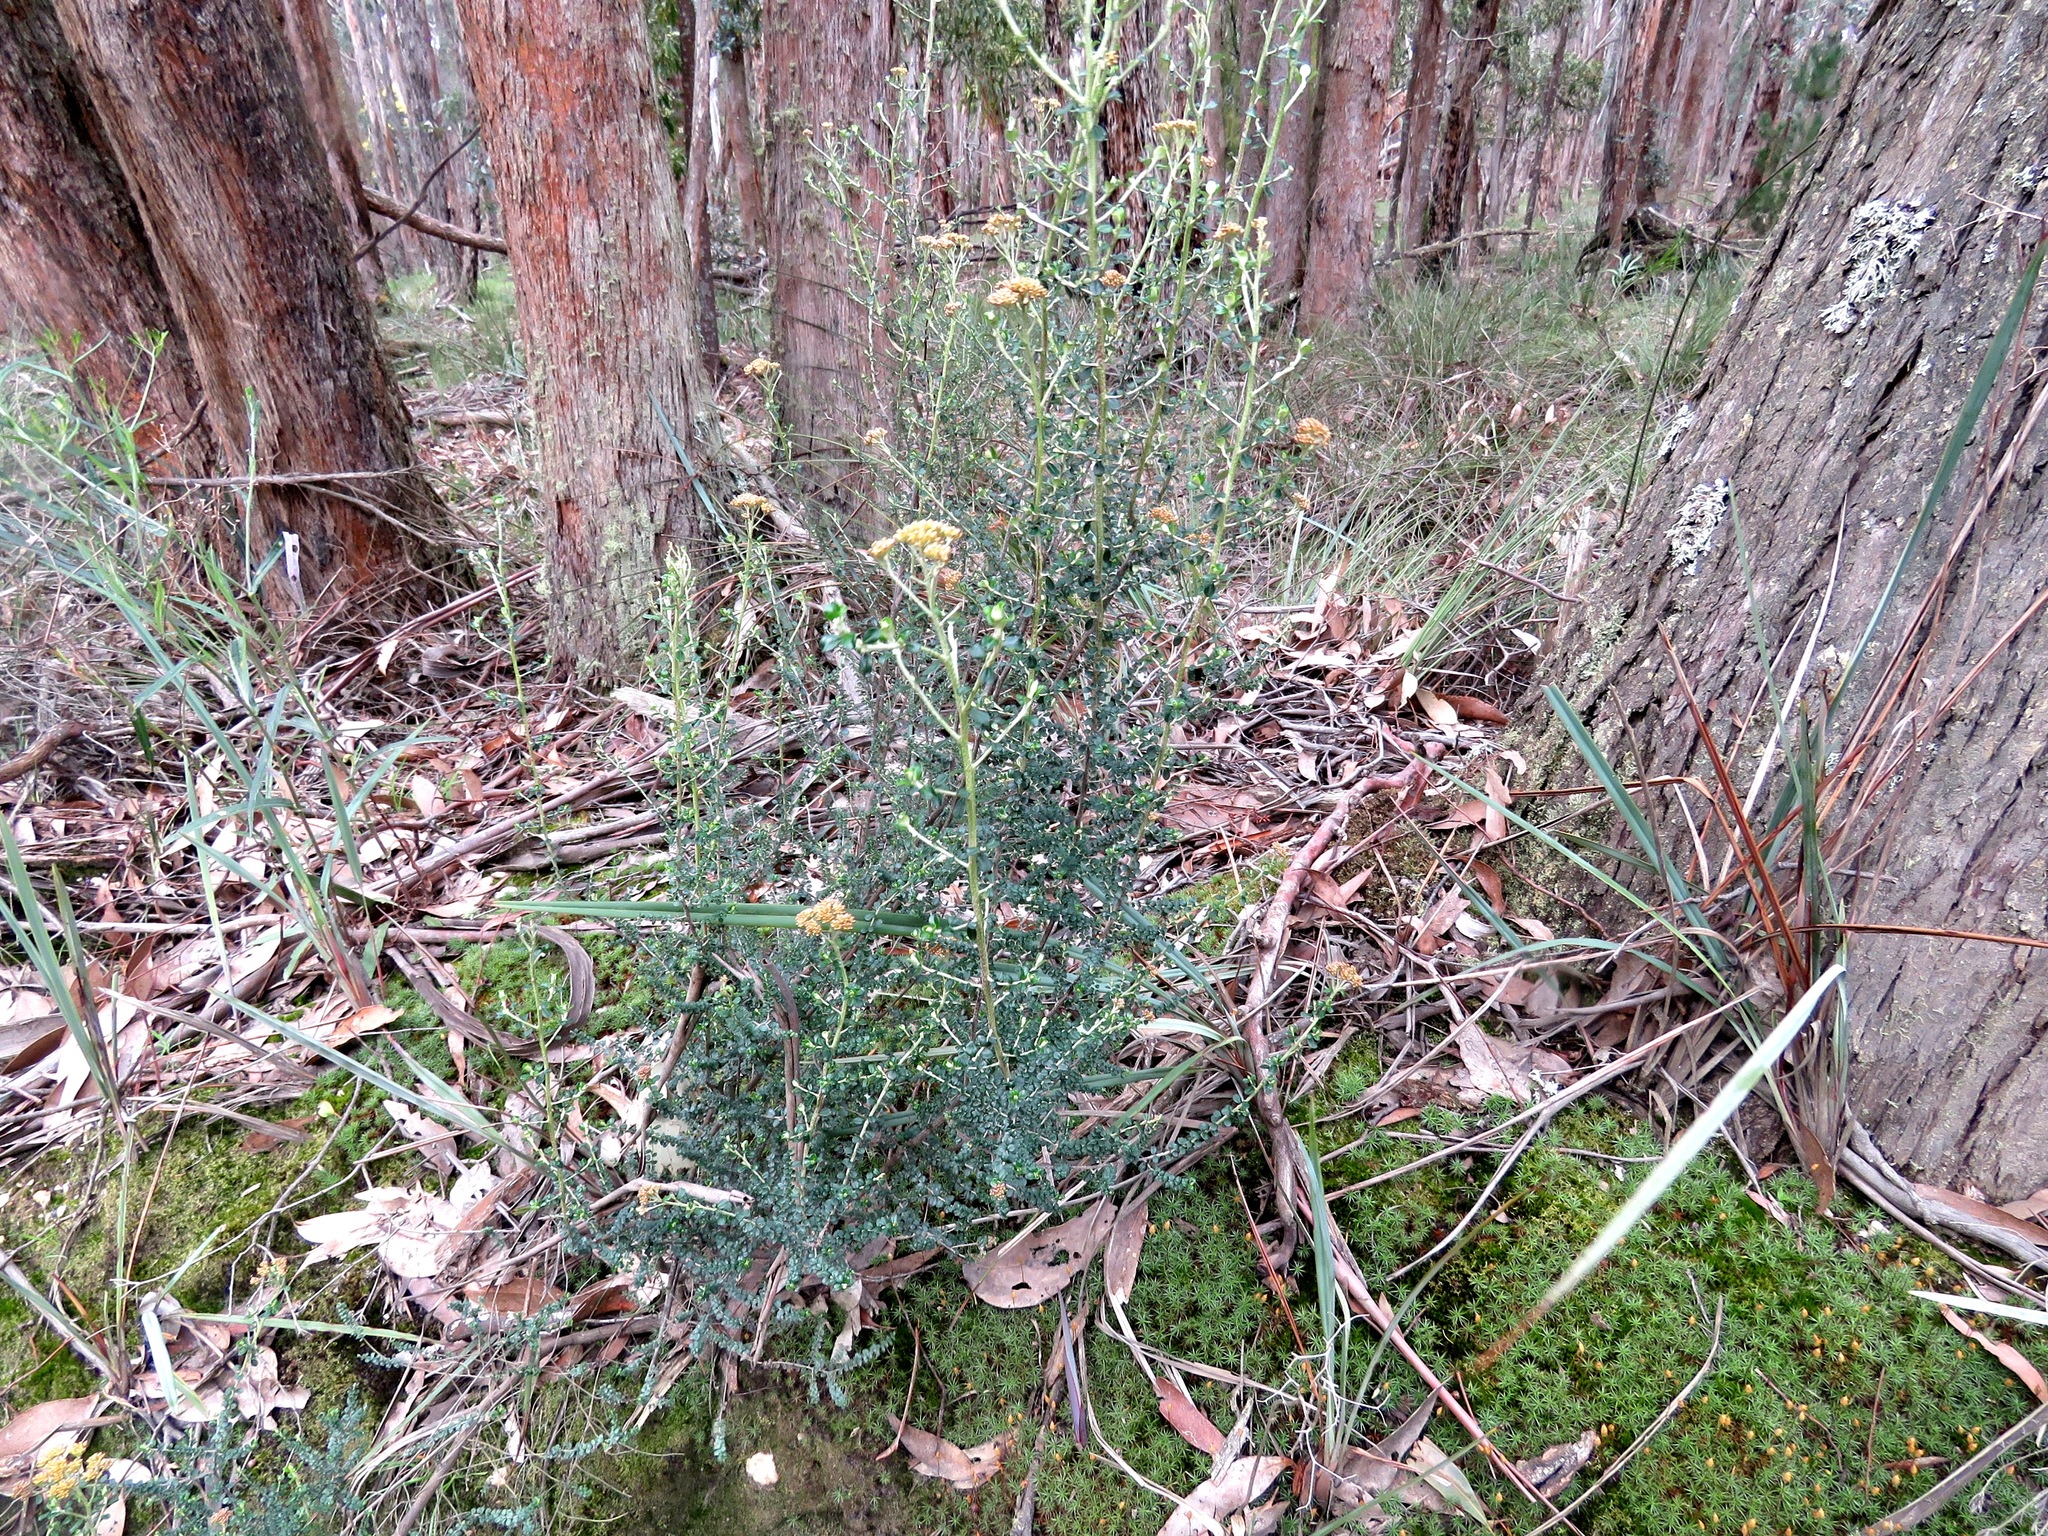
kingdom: Plantae
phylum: Tracheophyta
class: Magnoliopsida
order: Asterales
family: Asteraceae
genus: Ozothamnus
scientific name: Ozothamnus obcordatus
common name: Grey everlasting
